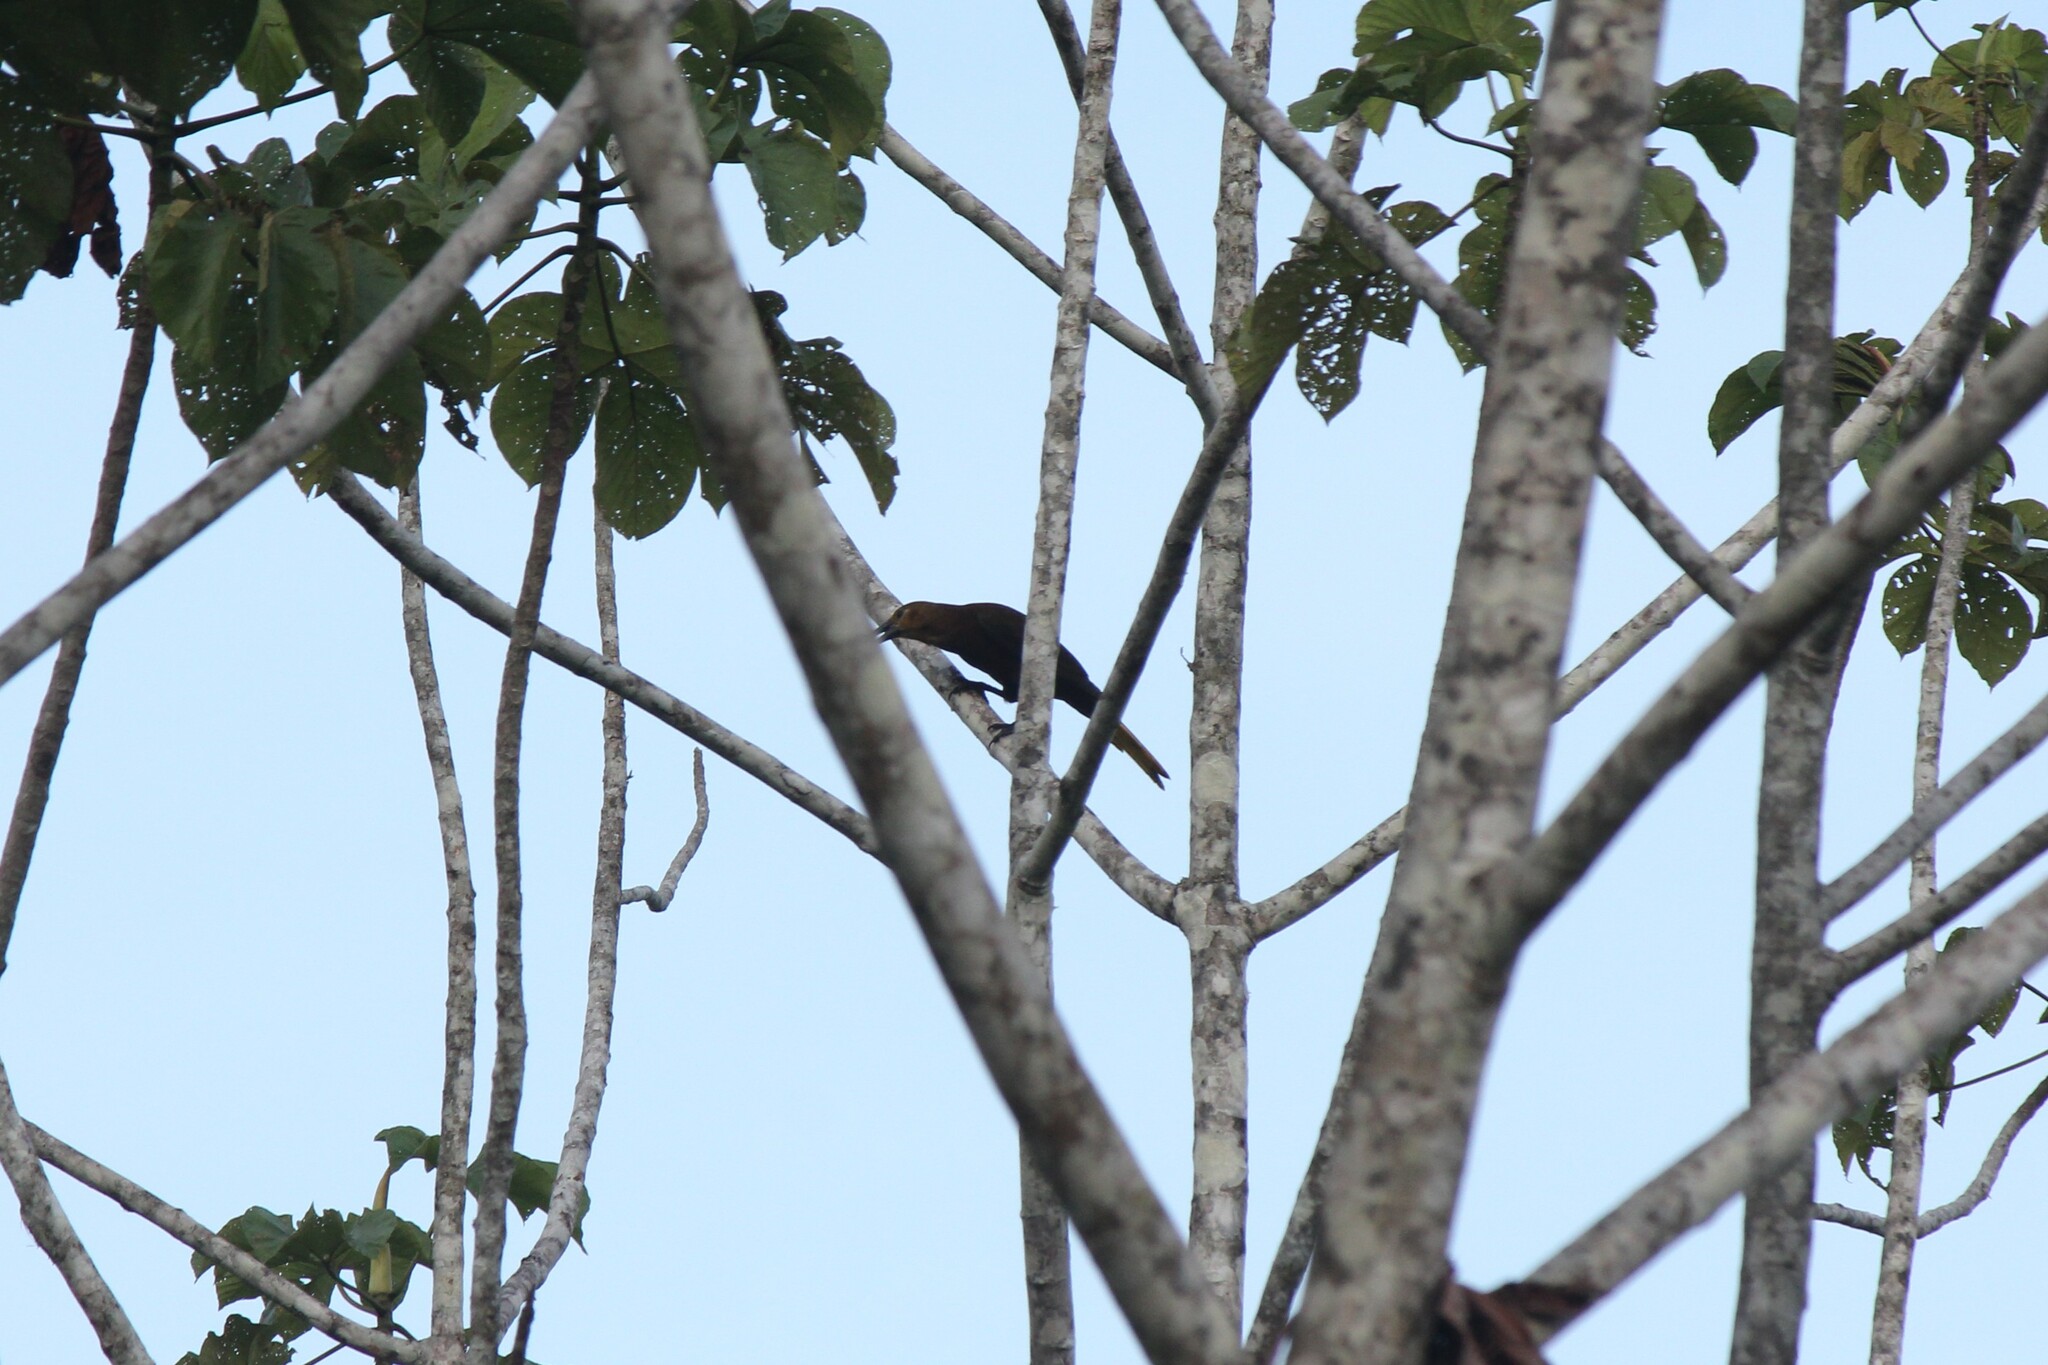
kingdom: Animalia
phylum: Chordata
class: Aves
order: Passeriformes
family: Icteridae
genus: Psarocolius
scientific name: Psarocolius angustifrons
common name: Russet-backed oropendola
